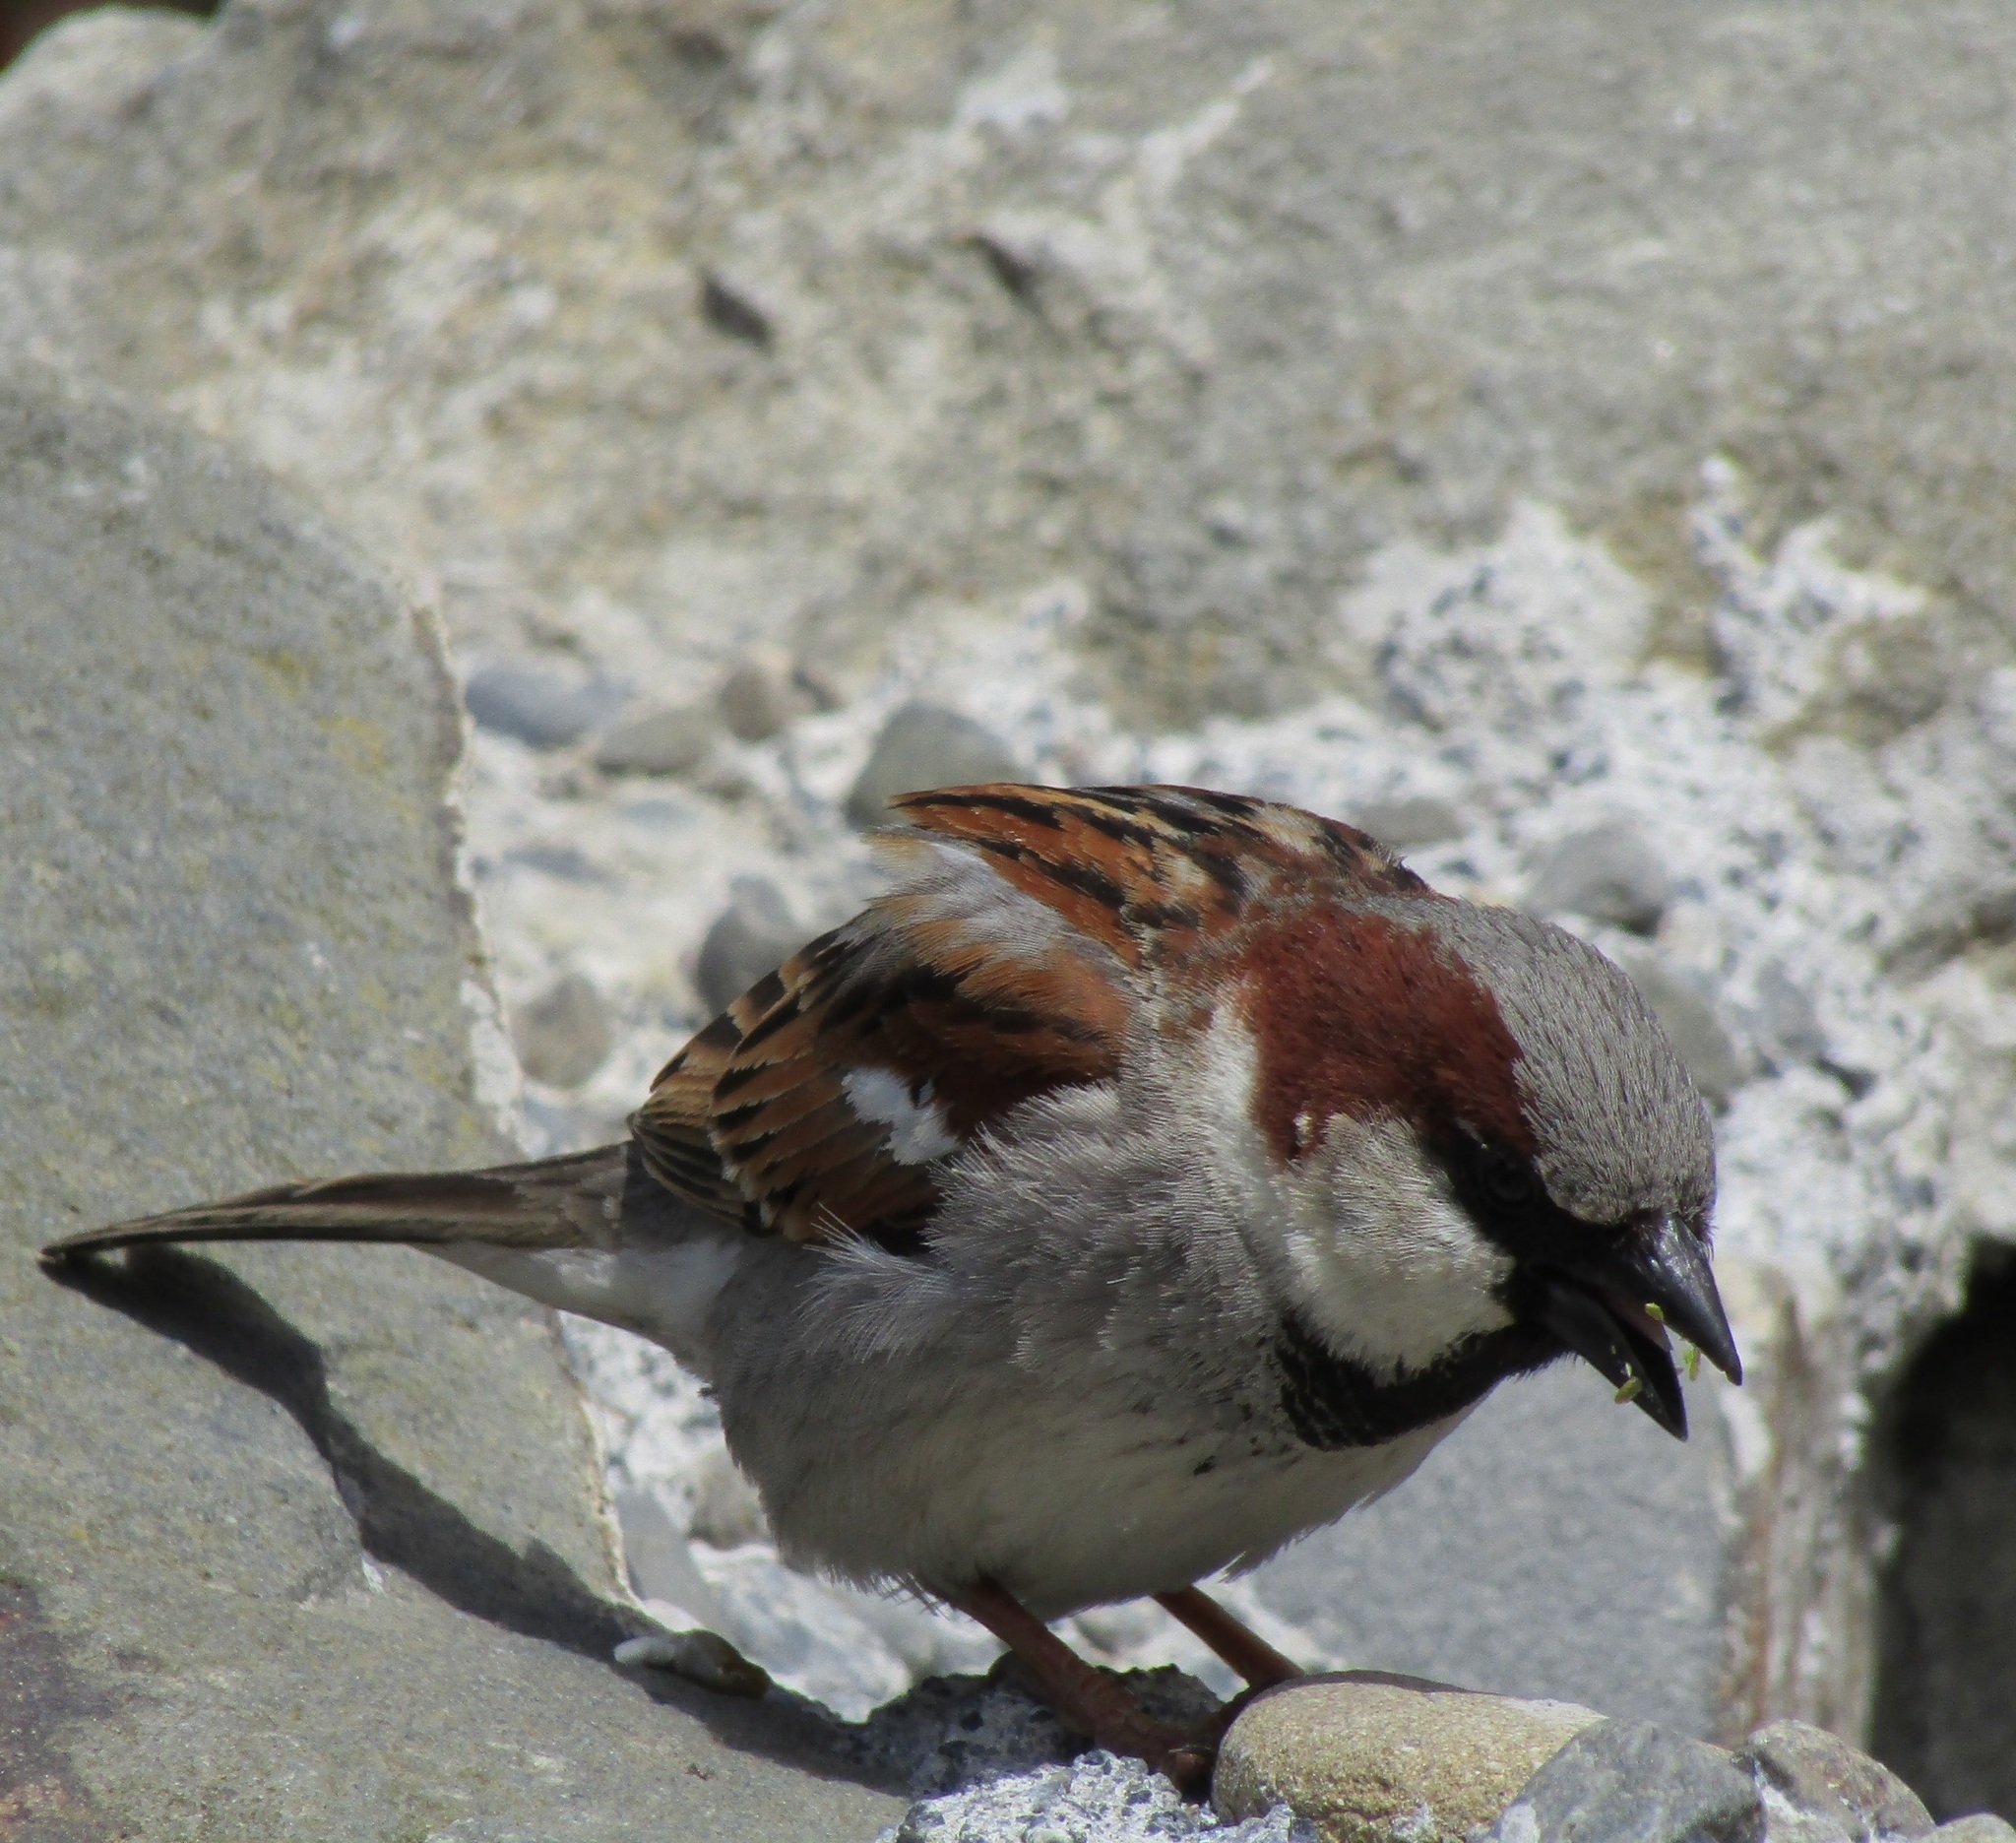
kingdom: Animalia
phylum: Chordata
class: Aves
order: Passeriformes
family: Passeridae
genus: Passer
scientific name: Passer domesticus
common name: House sparrow
